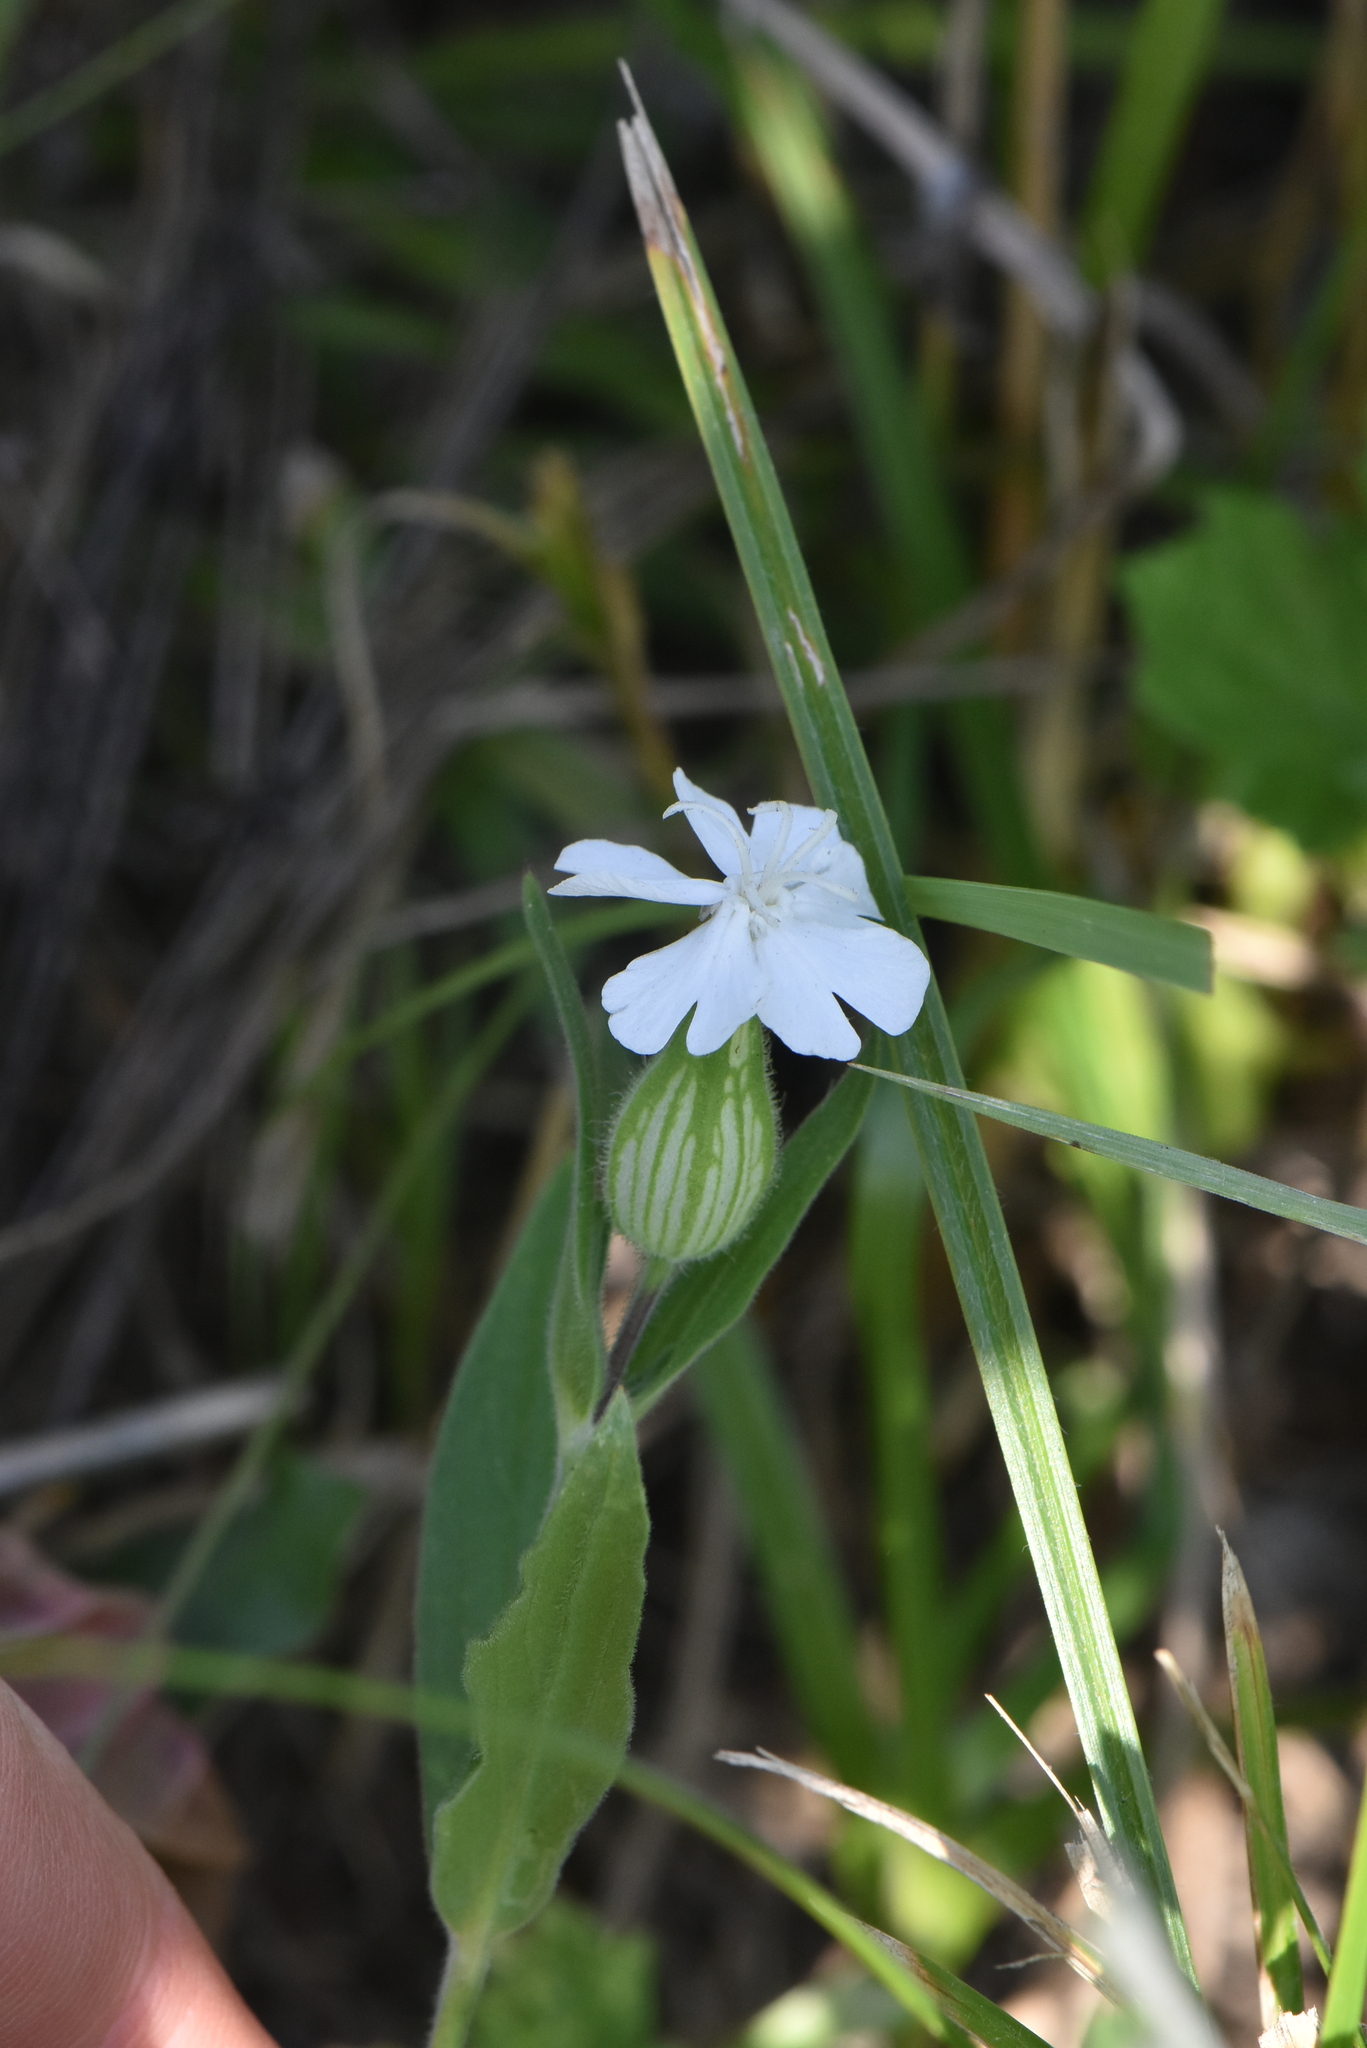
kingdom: Plantae
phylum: Tracheophyta
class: Magnoliopsida
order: Caryophyllales
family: Caryophyllaceae
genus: Silene
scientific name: Silene latifolia
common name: White campion
